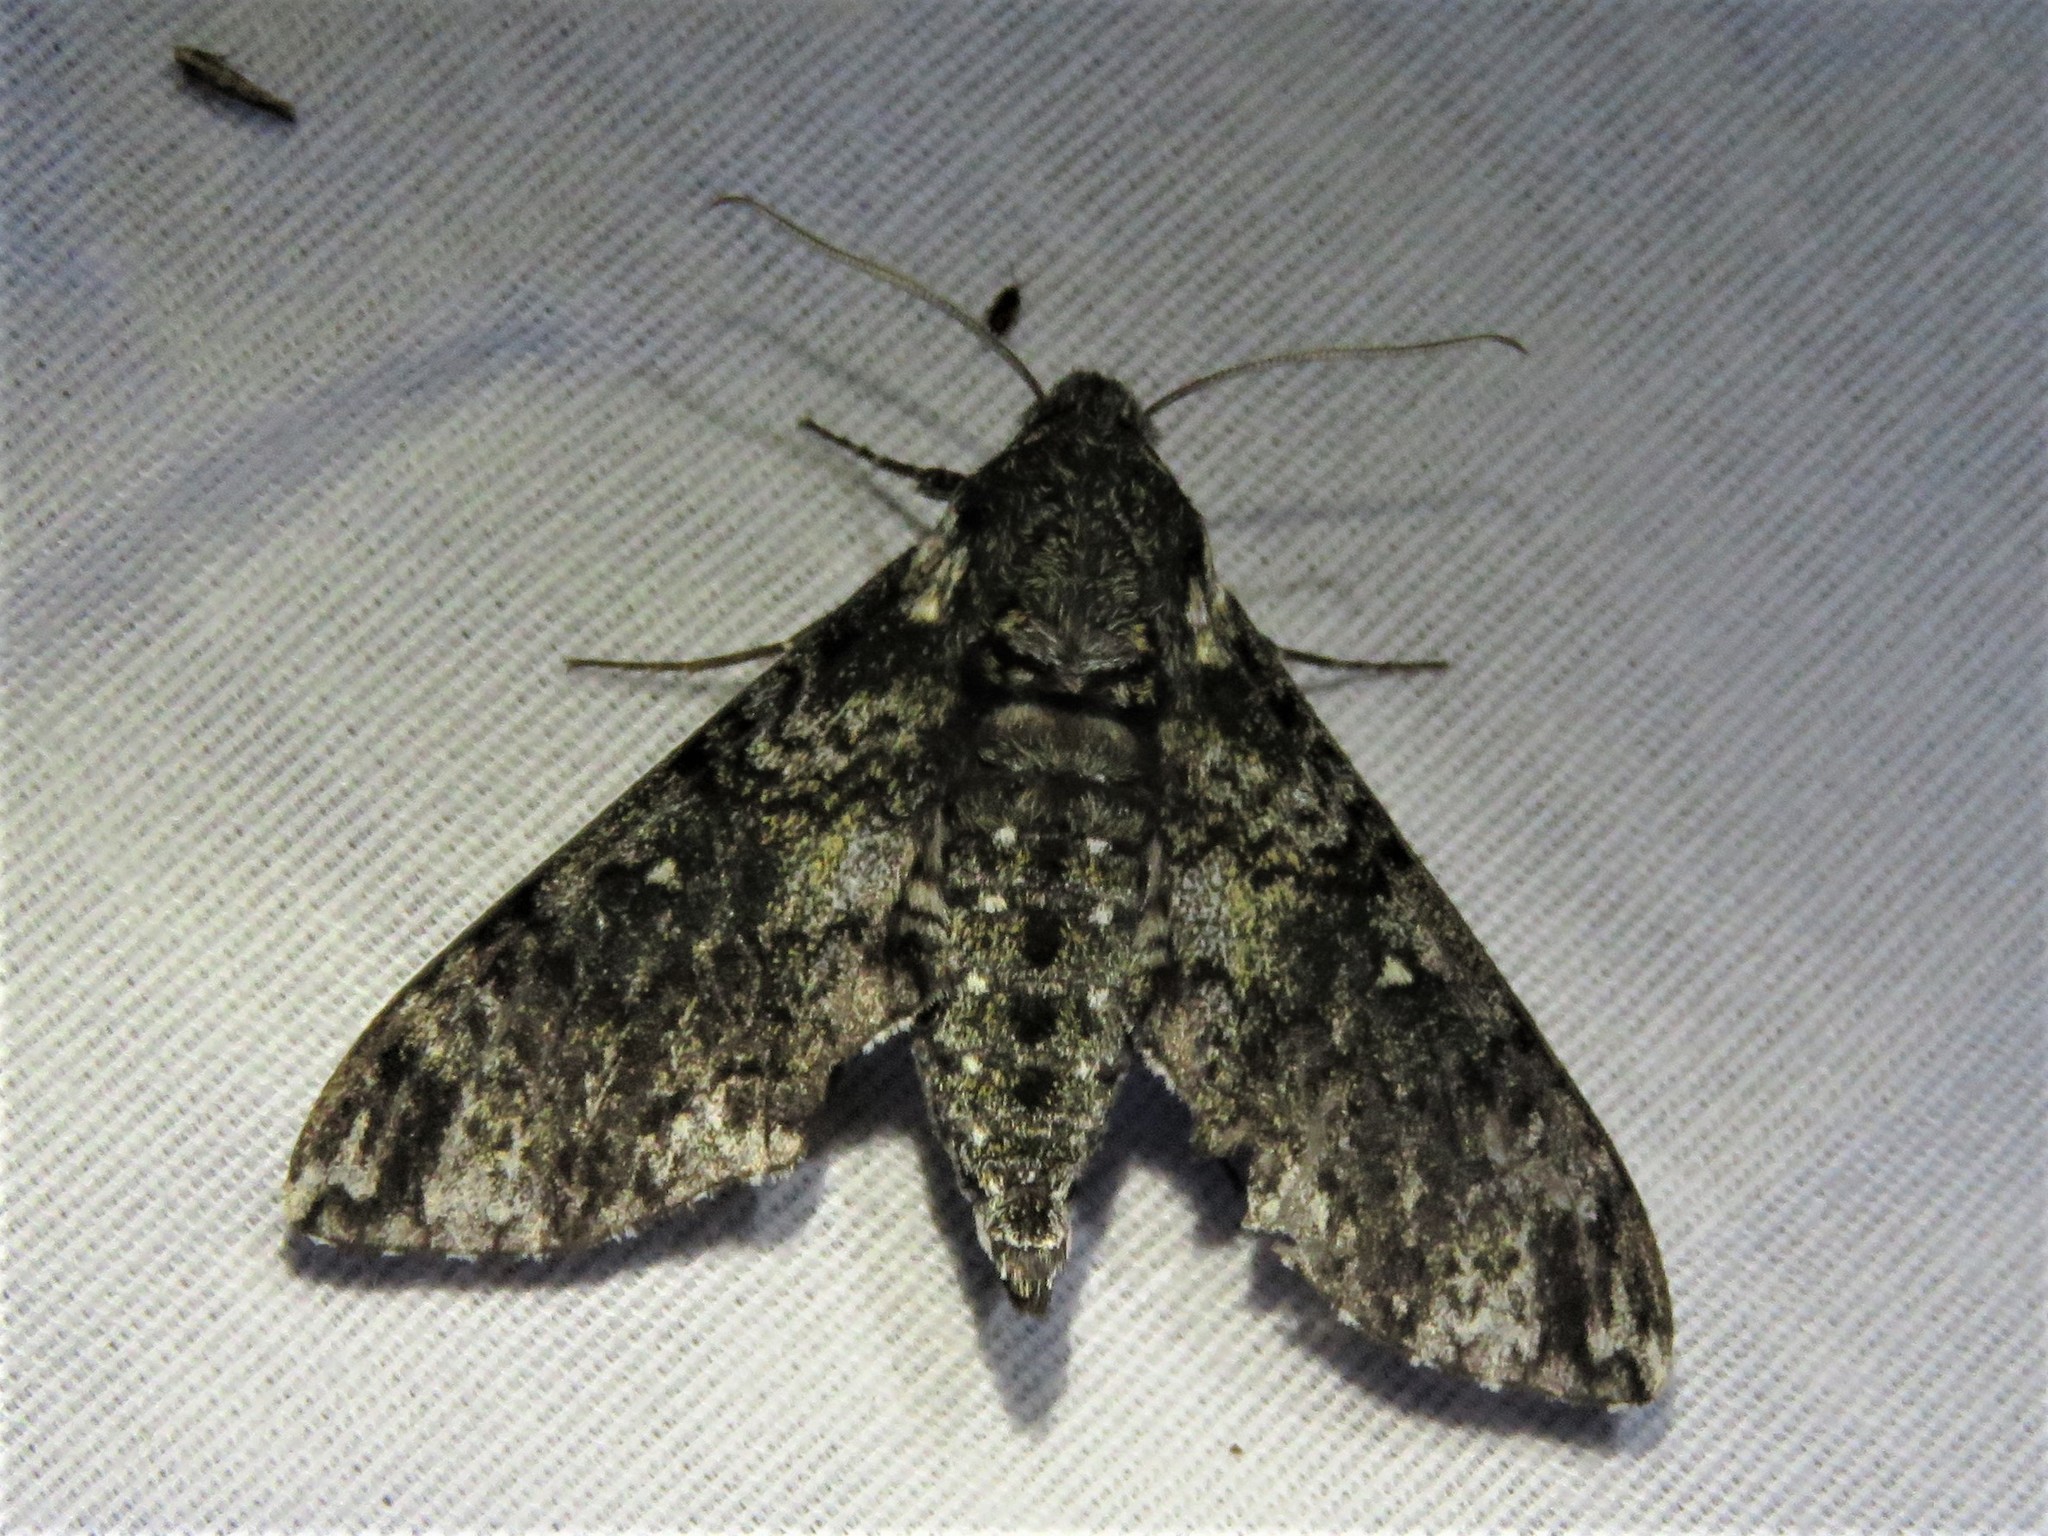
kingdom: Animalia
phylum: Arthropoda
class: Insecta
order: Lepidoptera
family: Sphingidae
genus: Dolba
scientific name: Dolba hyloeus
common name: Pawpaw sphinx
